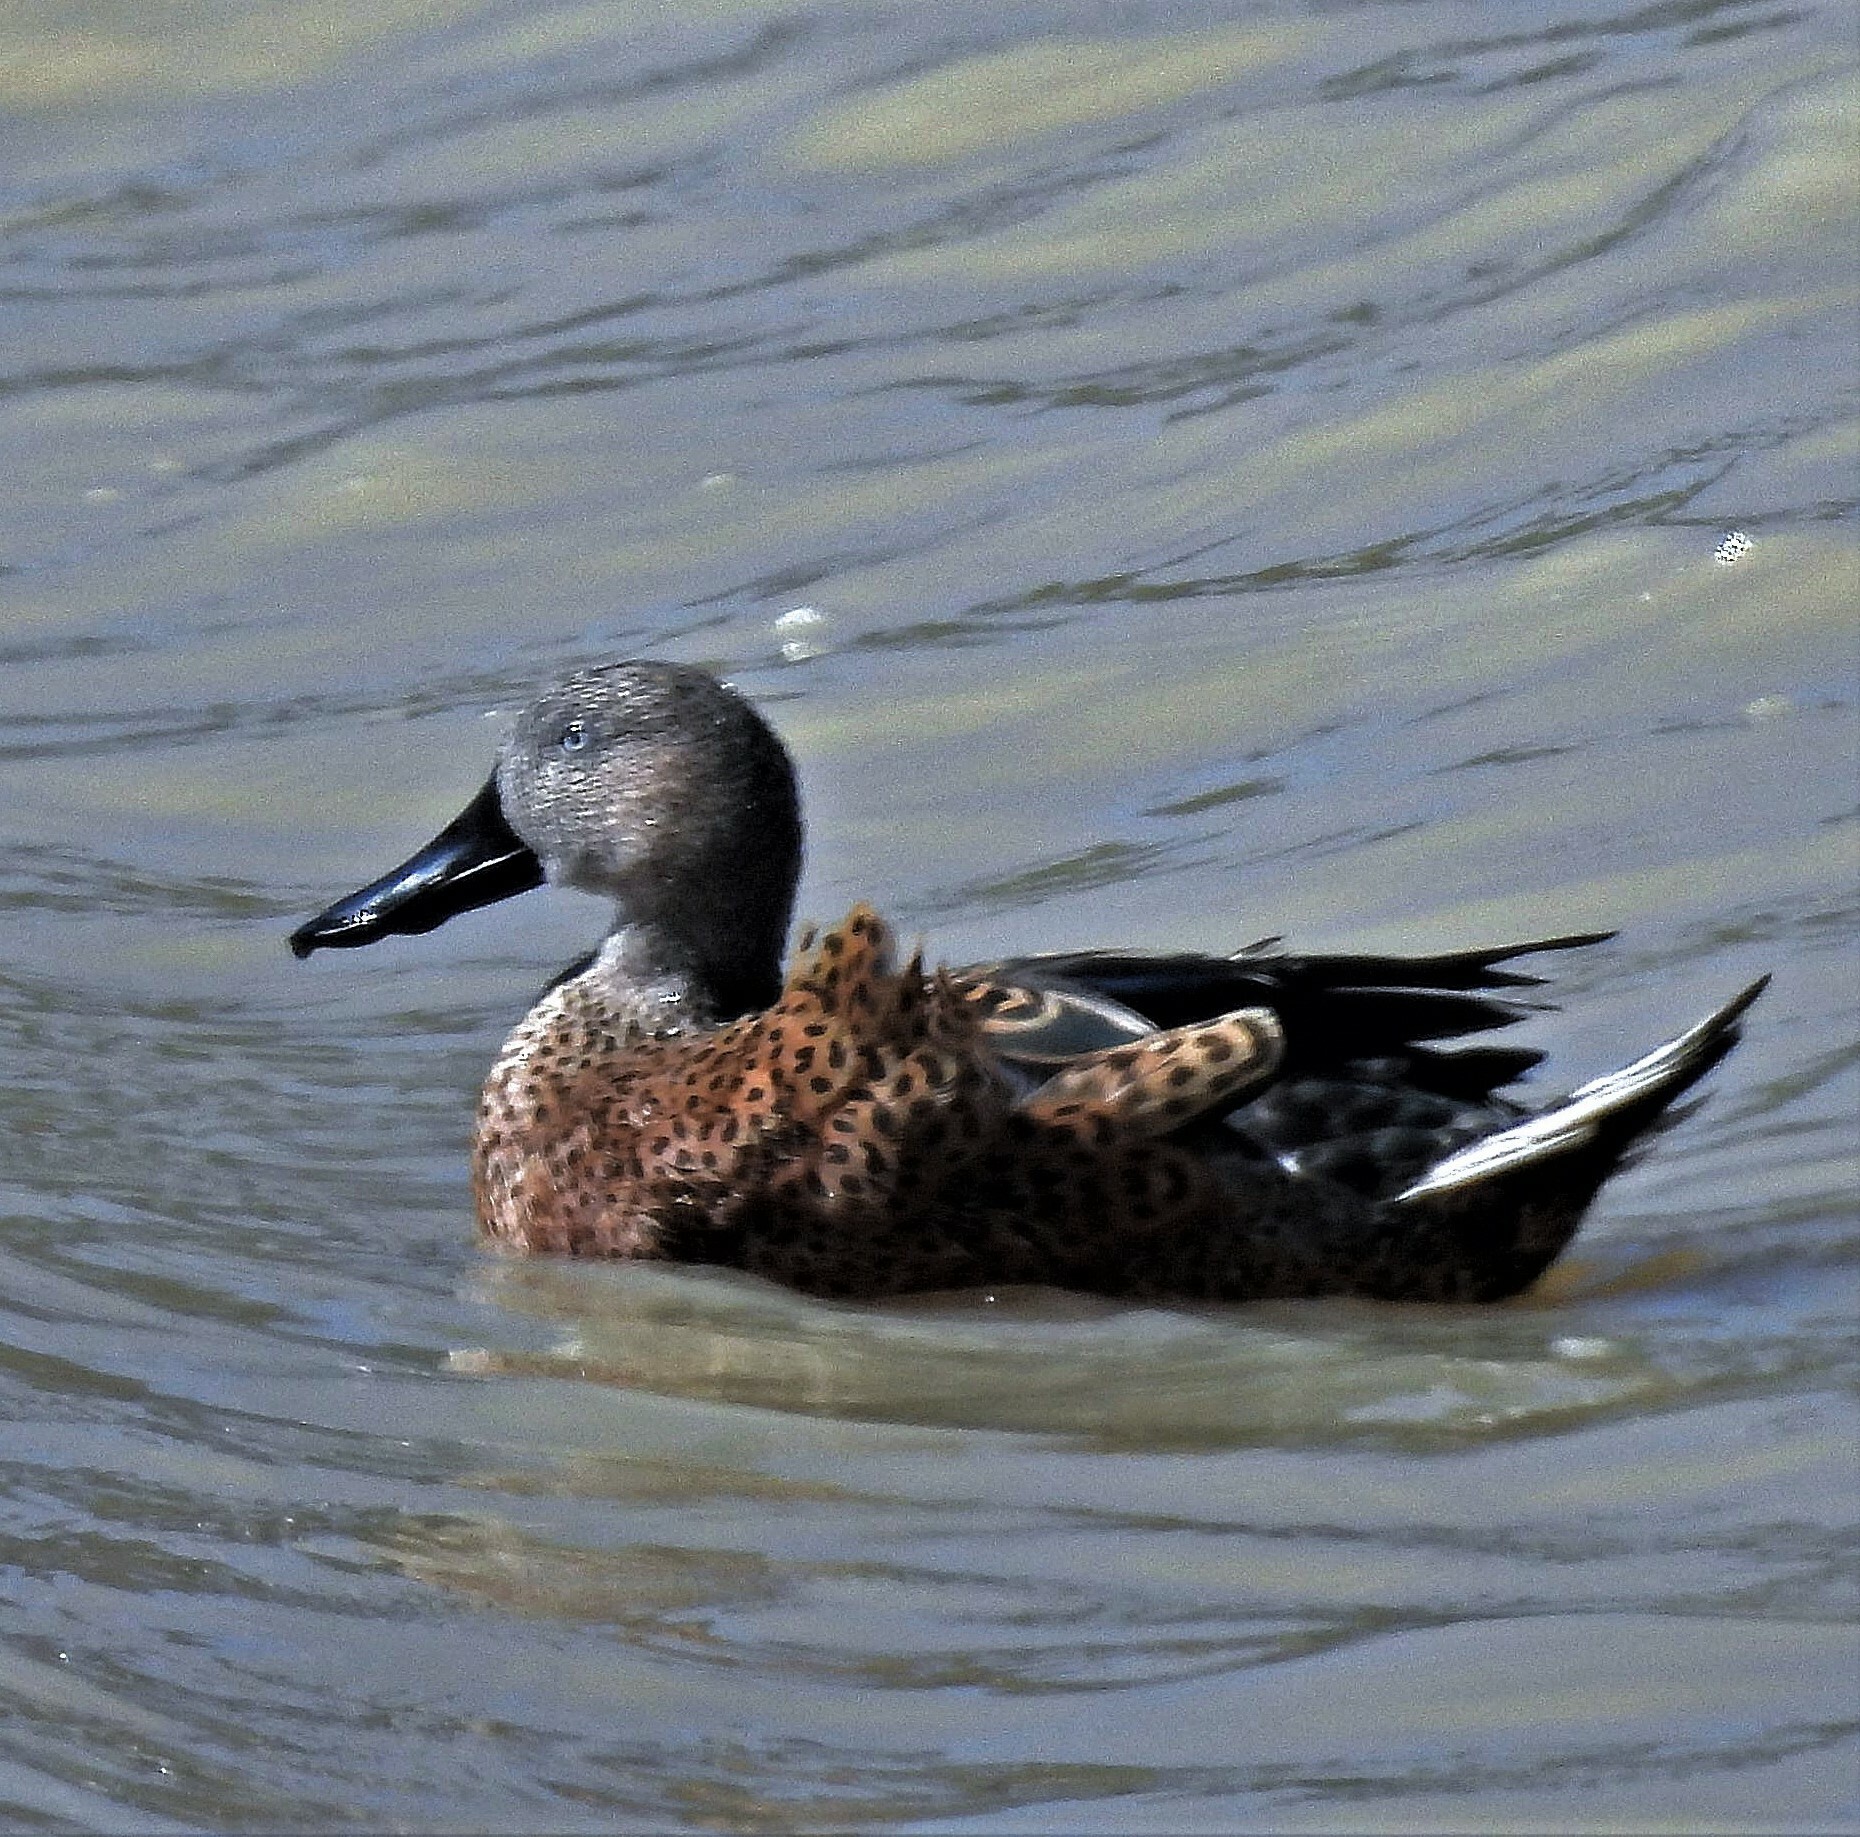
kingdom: Animalia
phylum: Chordata
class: Aves
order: Anseriformes
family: Anatidae
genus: Spatula
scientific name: Spatula platalea
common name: Red shoveler
